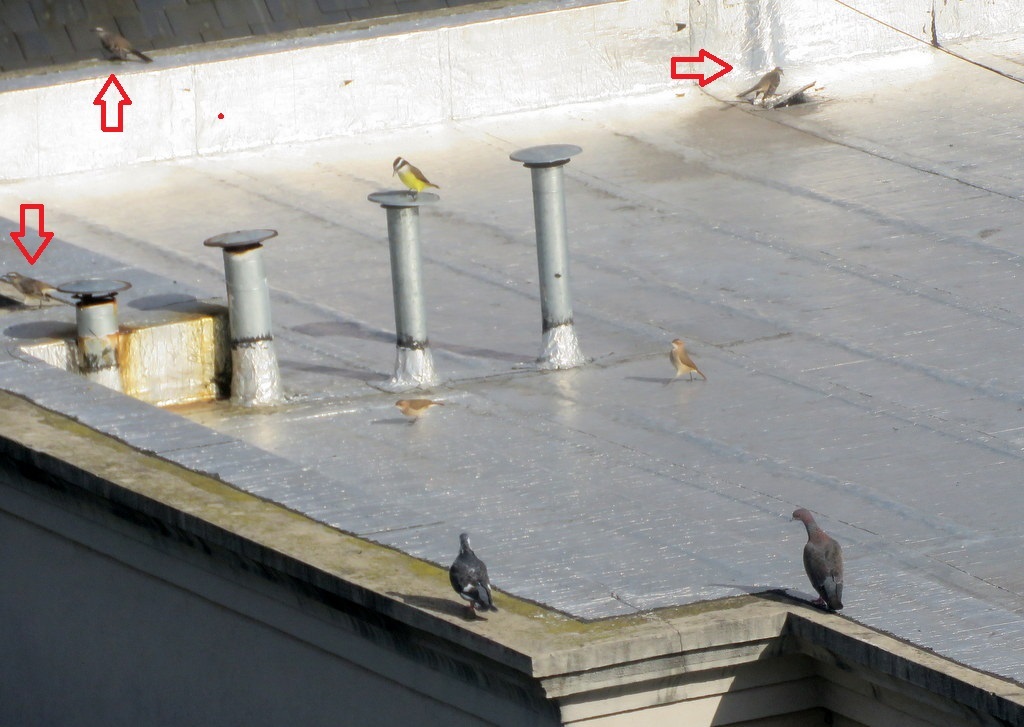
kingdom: Animalia
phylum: Chordata
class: Aves
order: Passeriformes
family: Mimidae
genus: Mimus
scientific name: Mimus saturninus
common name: Chalk-browed mockingbird
